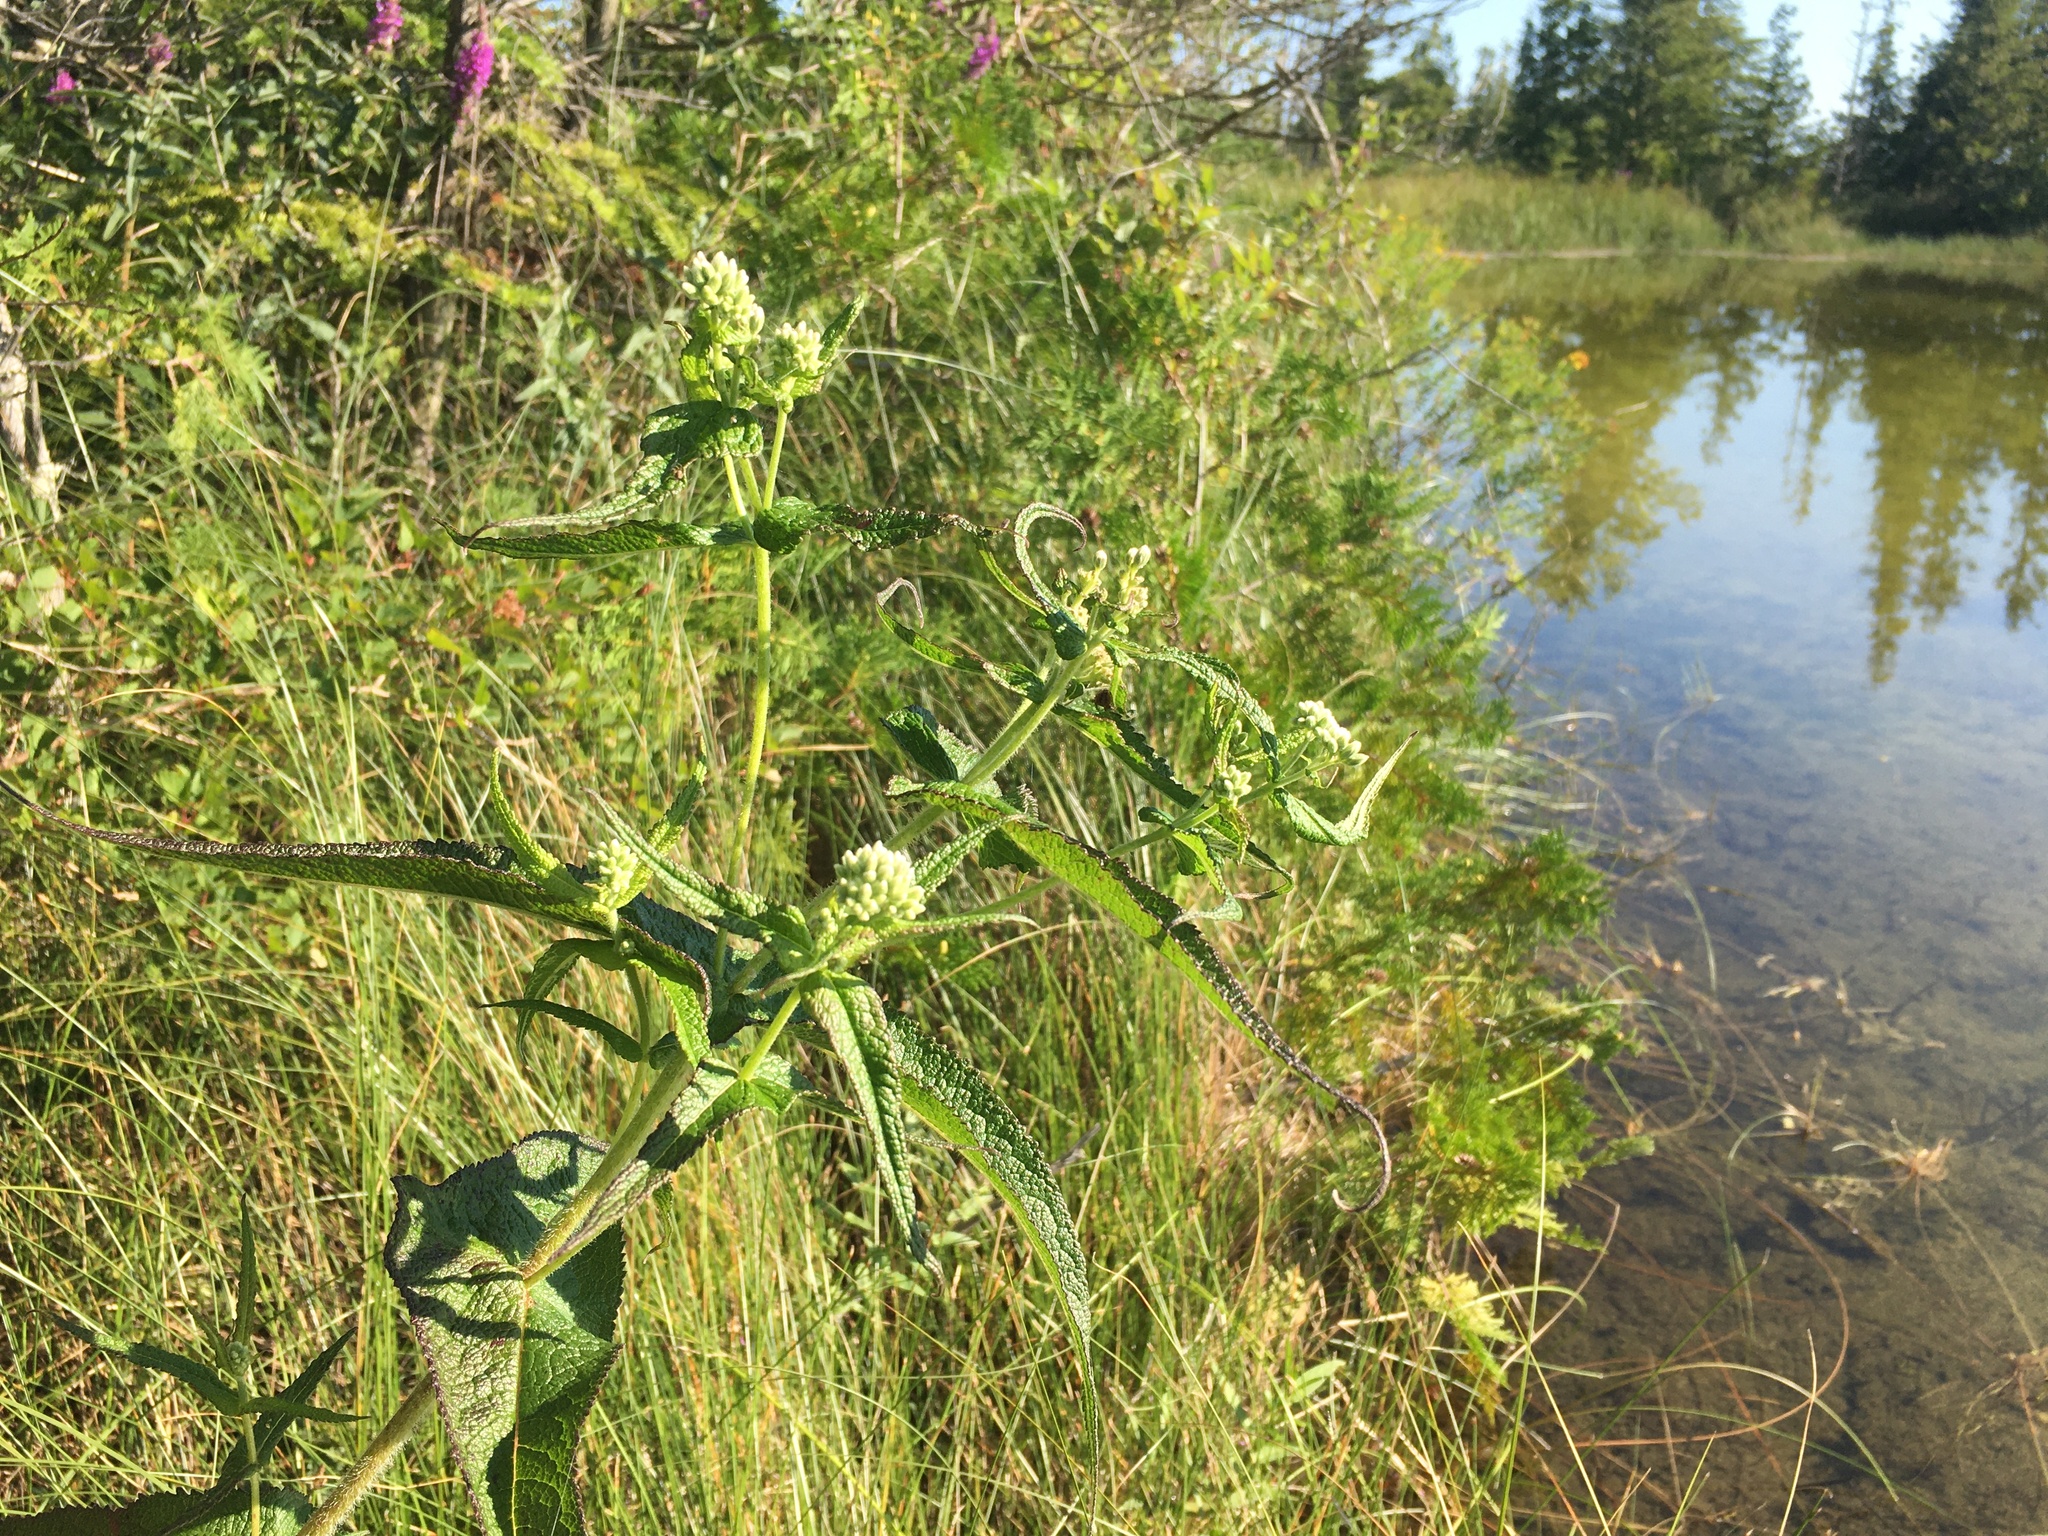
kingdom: Plantae
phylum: Tracheophyta
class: Magnoliopsida
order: Asterales
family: Asteraceae
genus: Eupatorium
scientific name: Eupatorium perfoliatum
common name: Boneset
